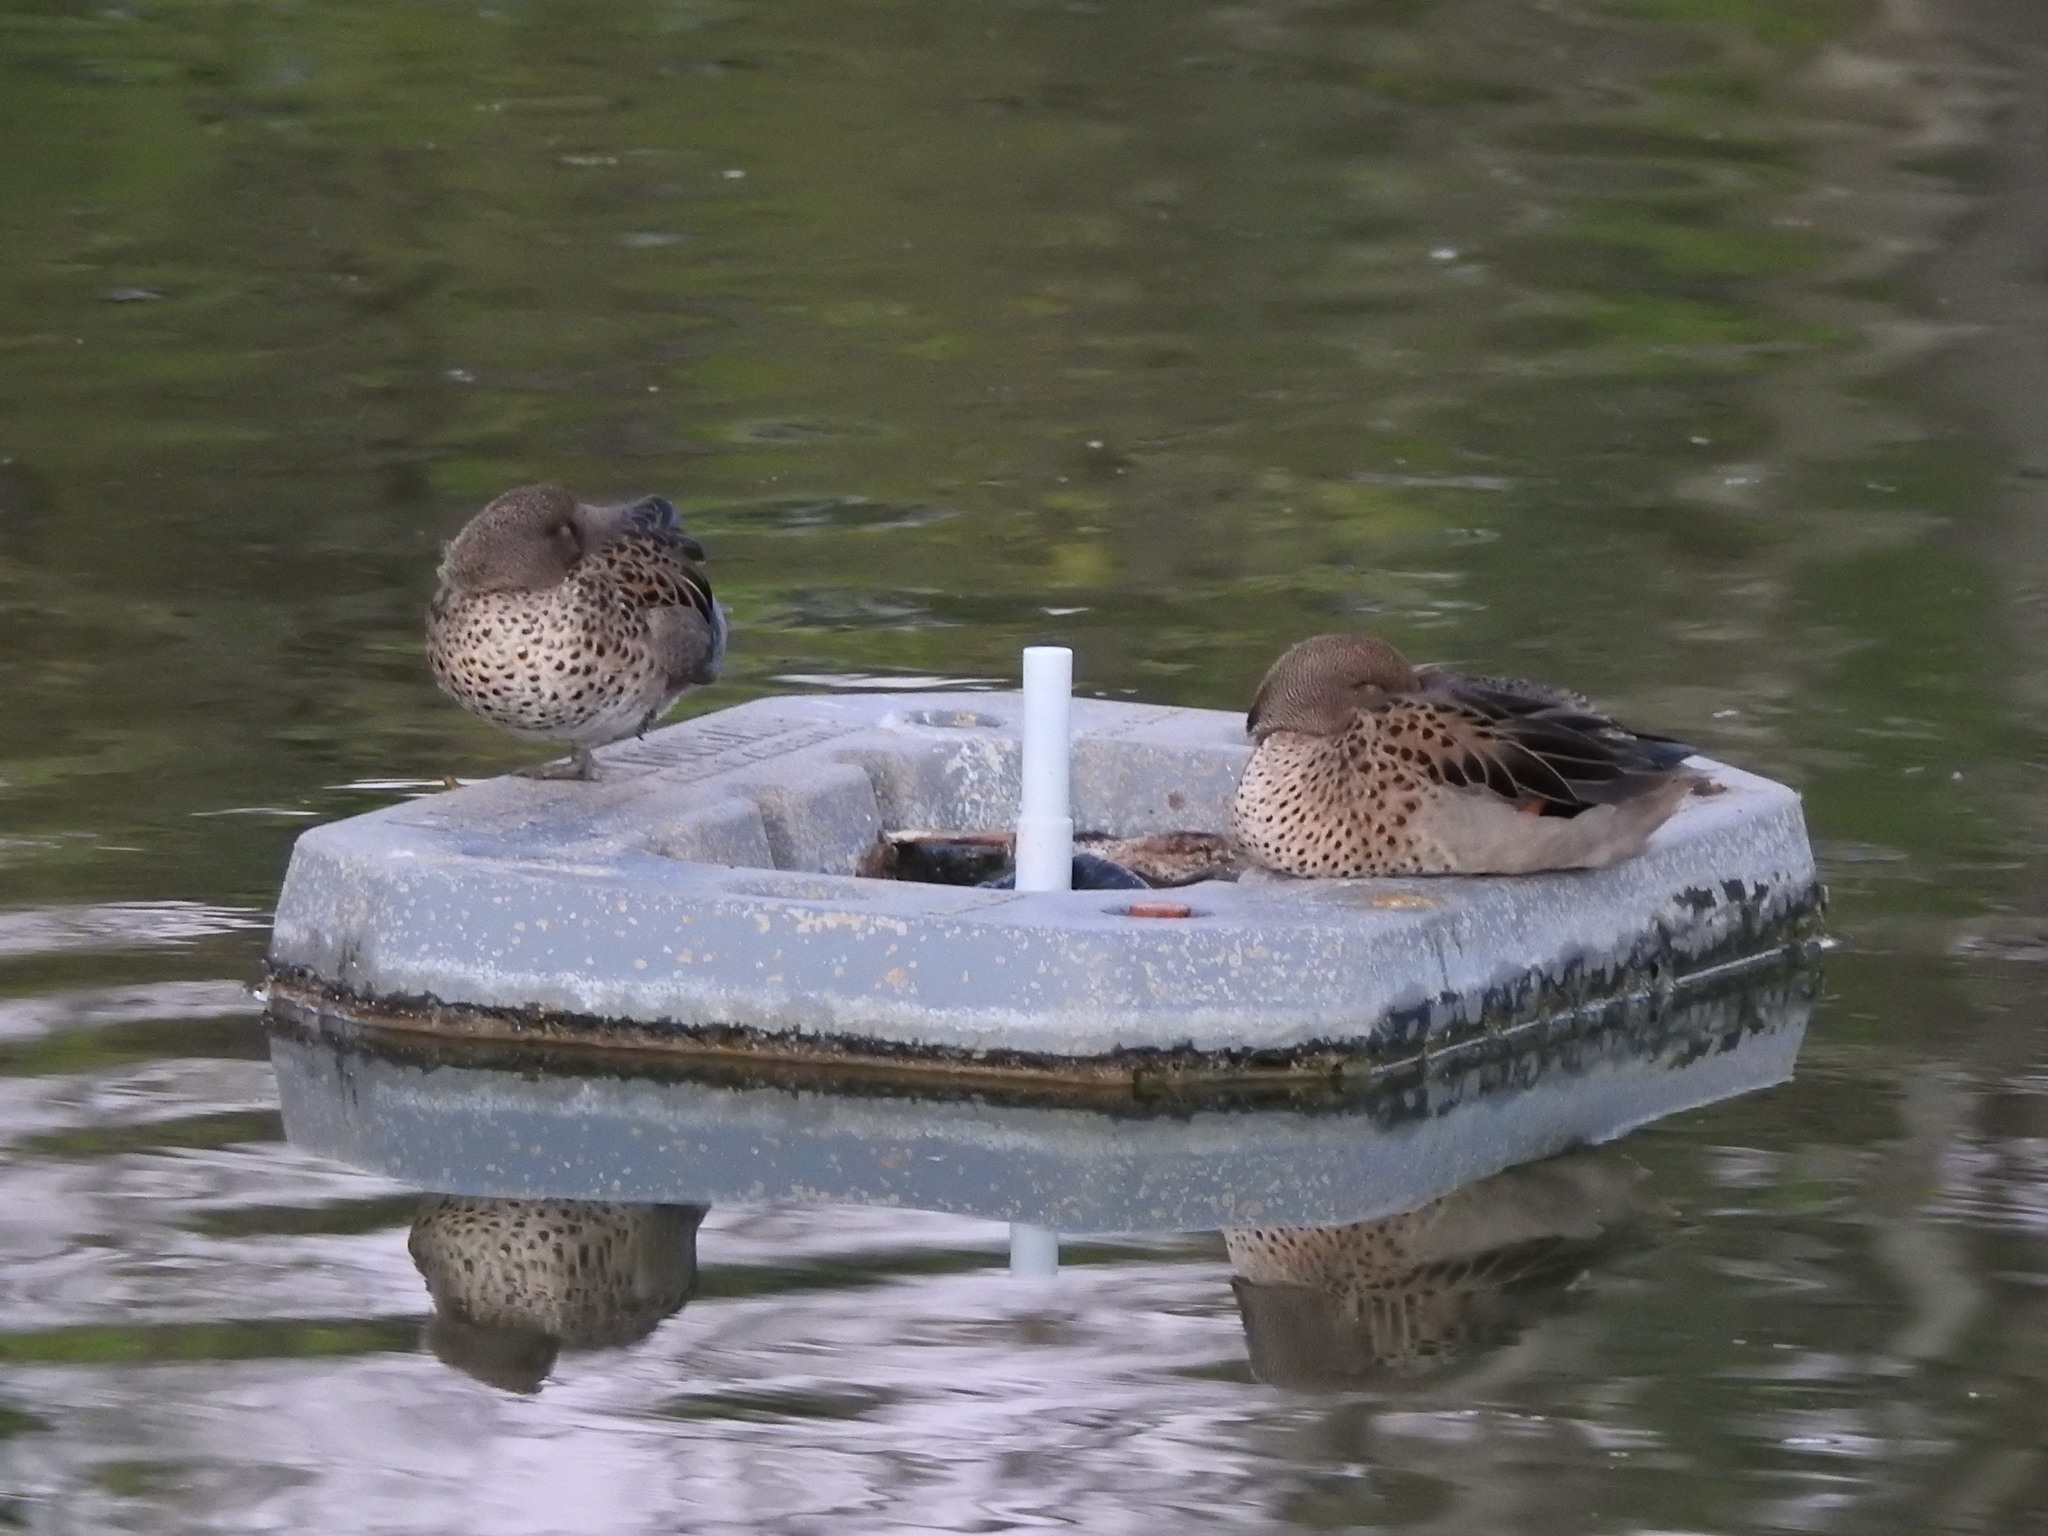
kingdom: Animalia
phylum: Chordata
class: Aves
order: Anseriformes
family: Anatidae
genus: Anas
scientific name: Anas flavirostris
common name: Yellow-billed teal
